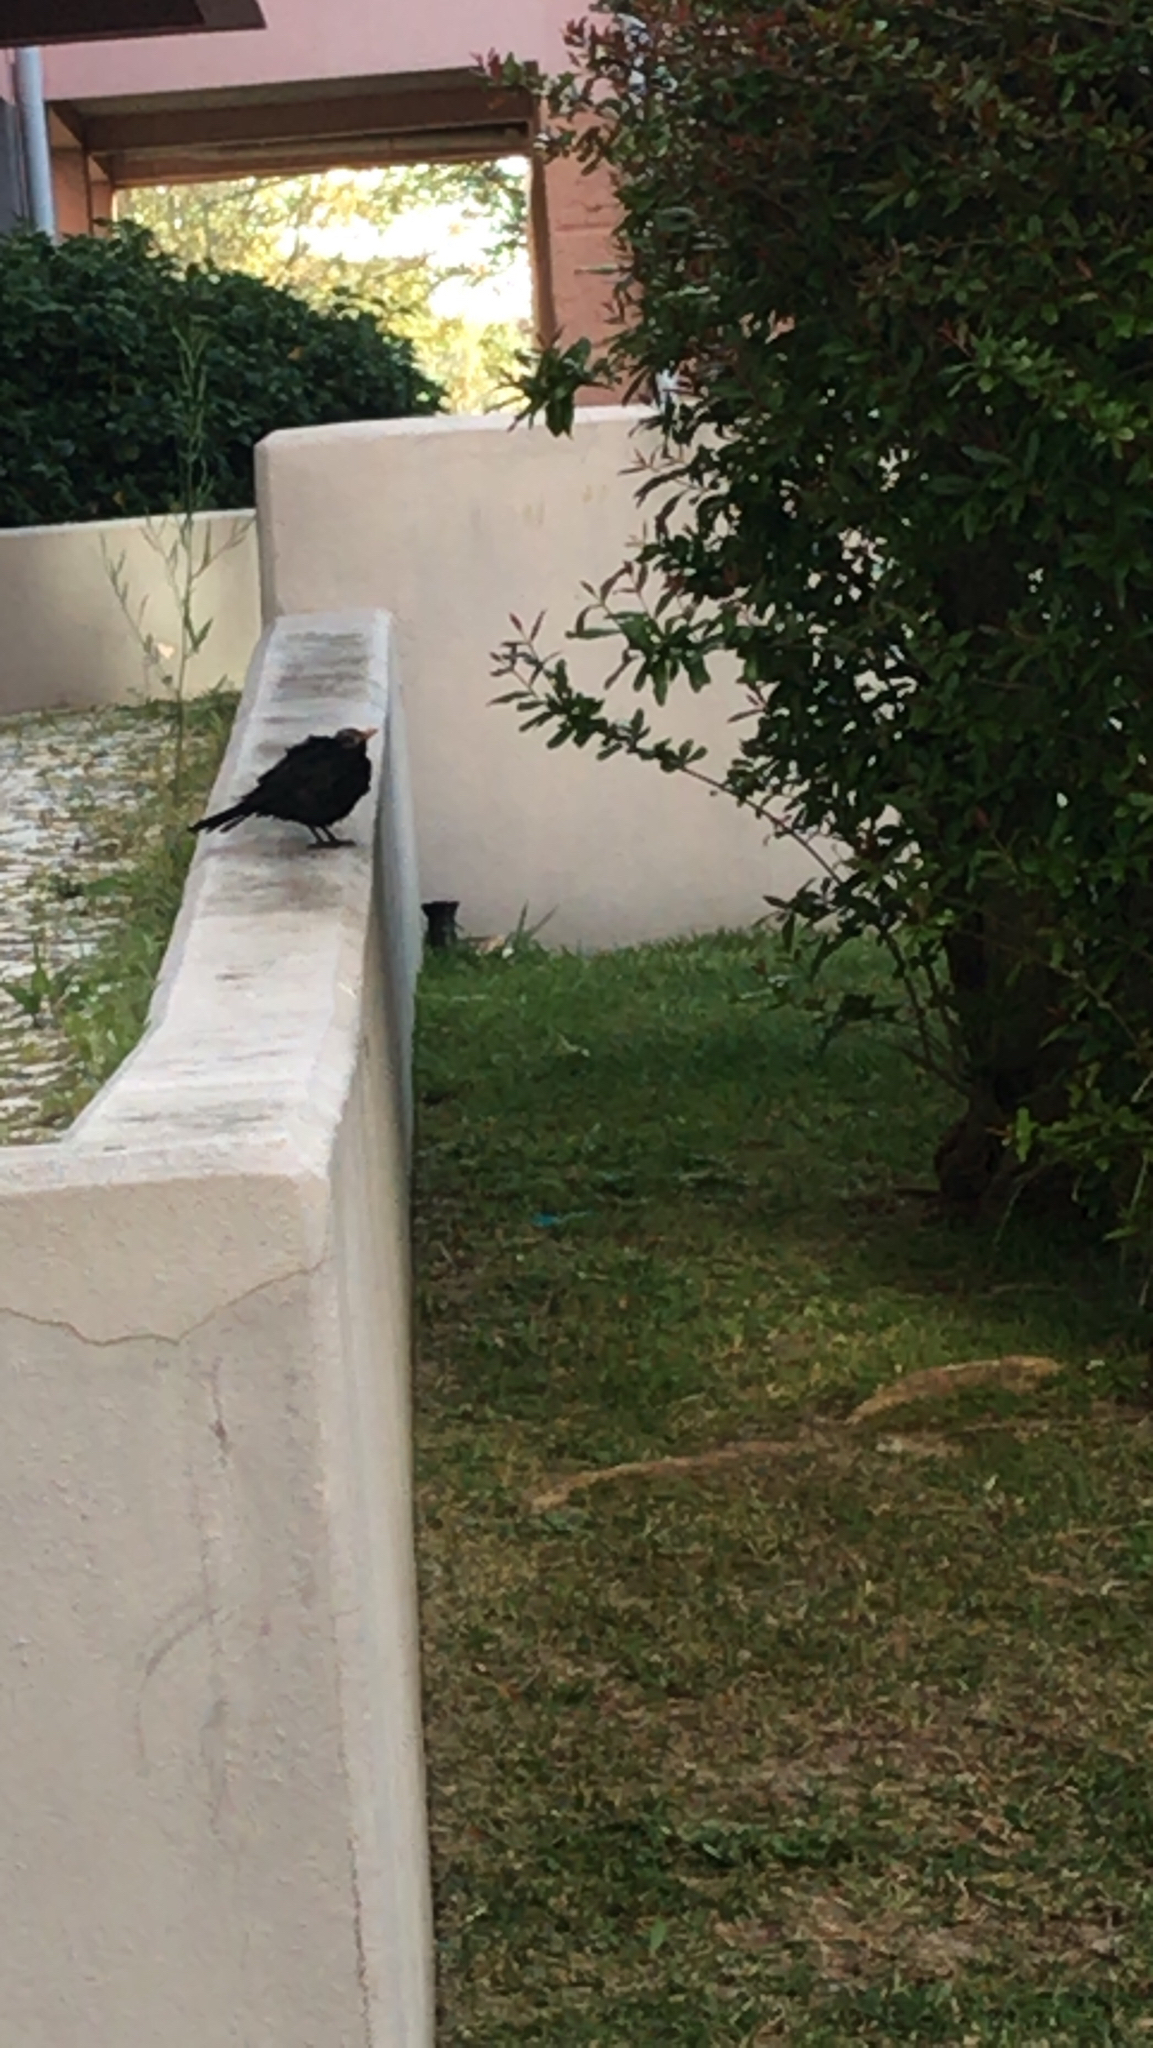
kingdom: Animalia
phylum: Chordata
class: Aves
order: Passeriformes
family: Turdidae
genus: Turdus
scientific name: Turdus merula
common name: Common blackbird
